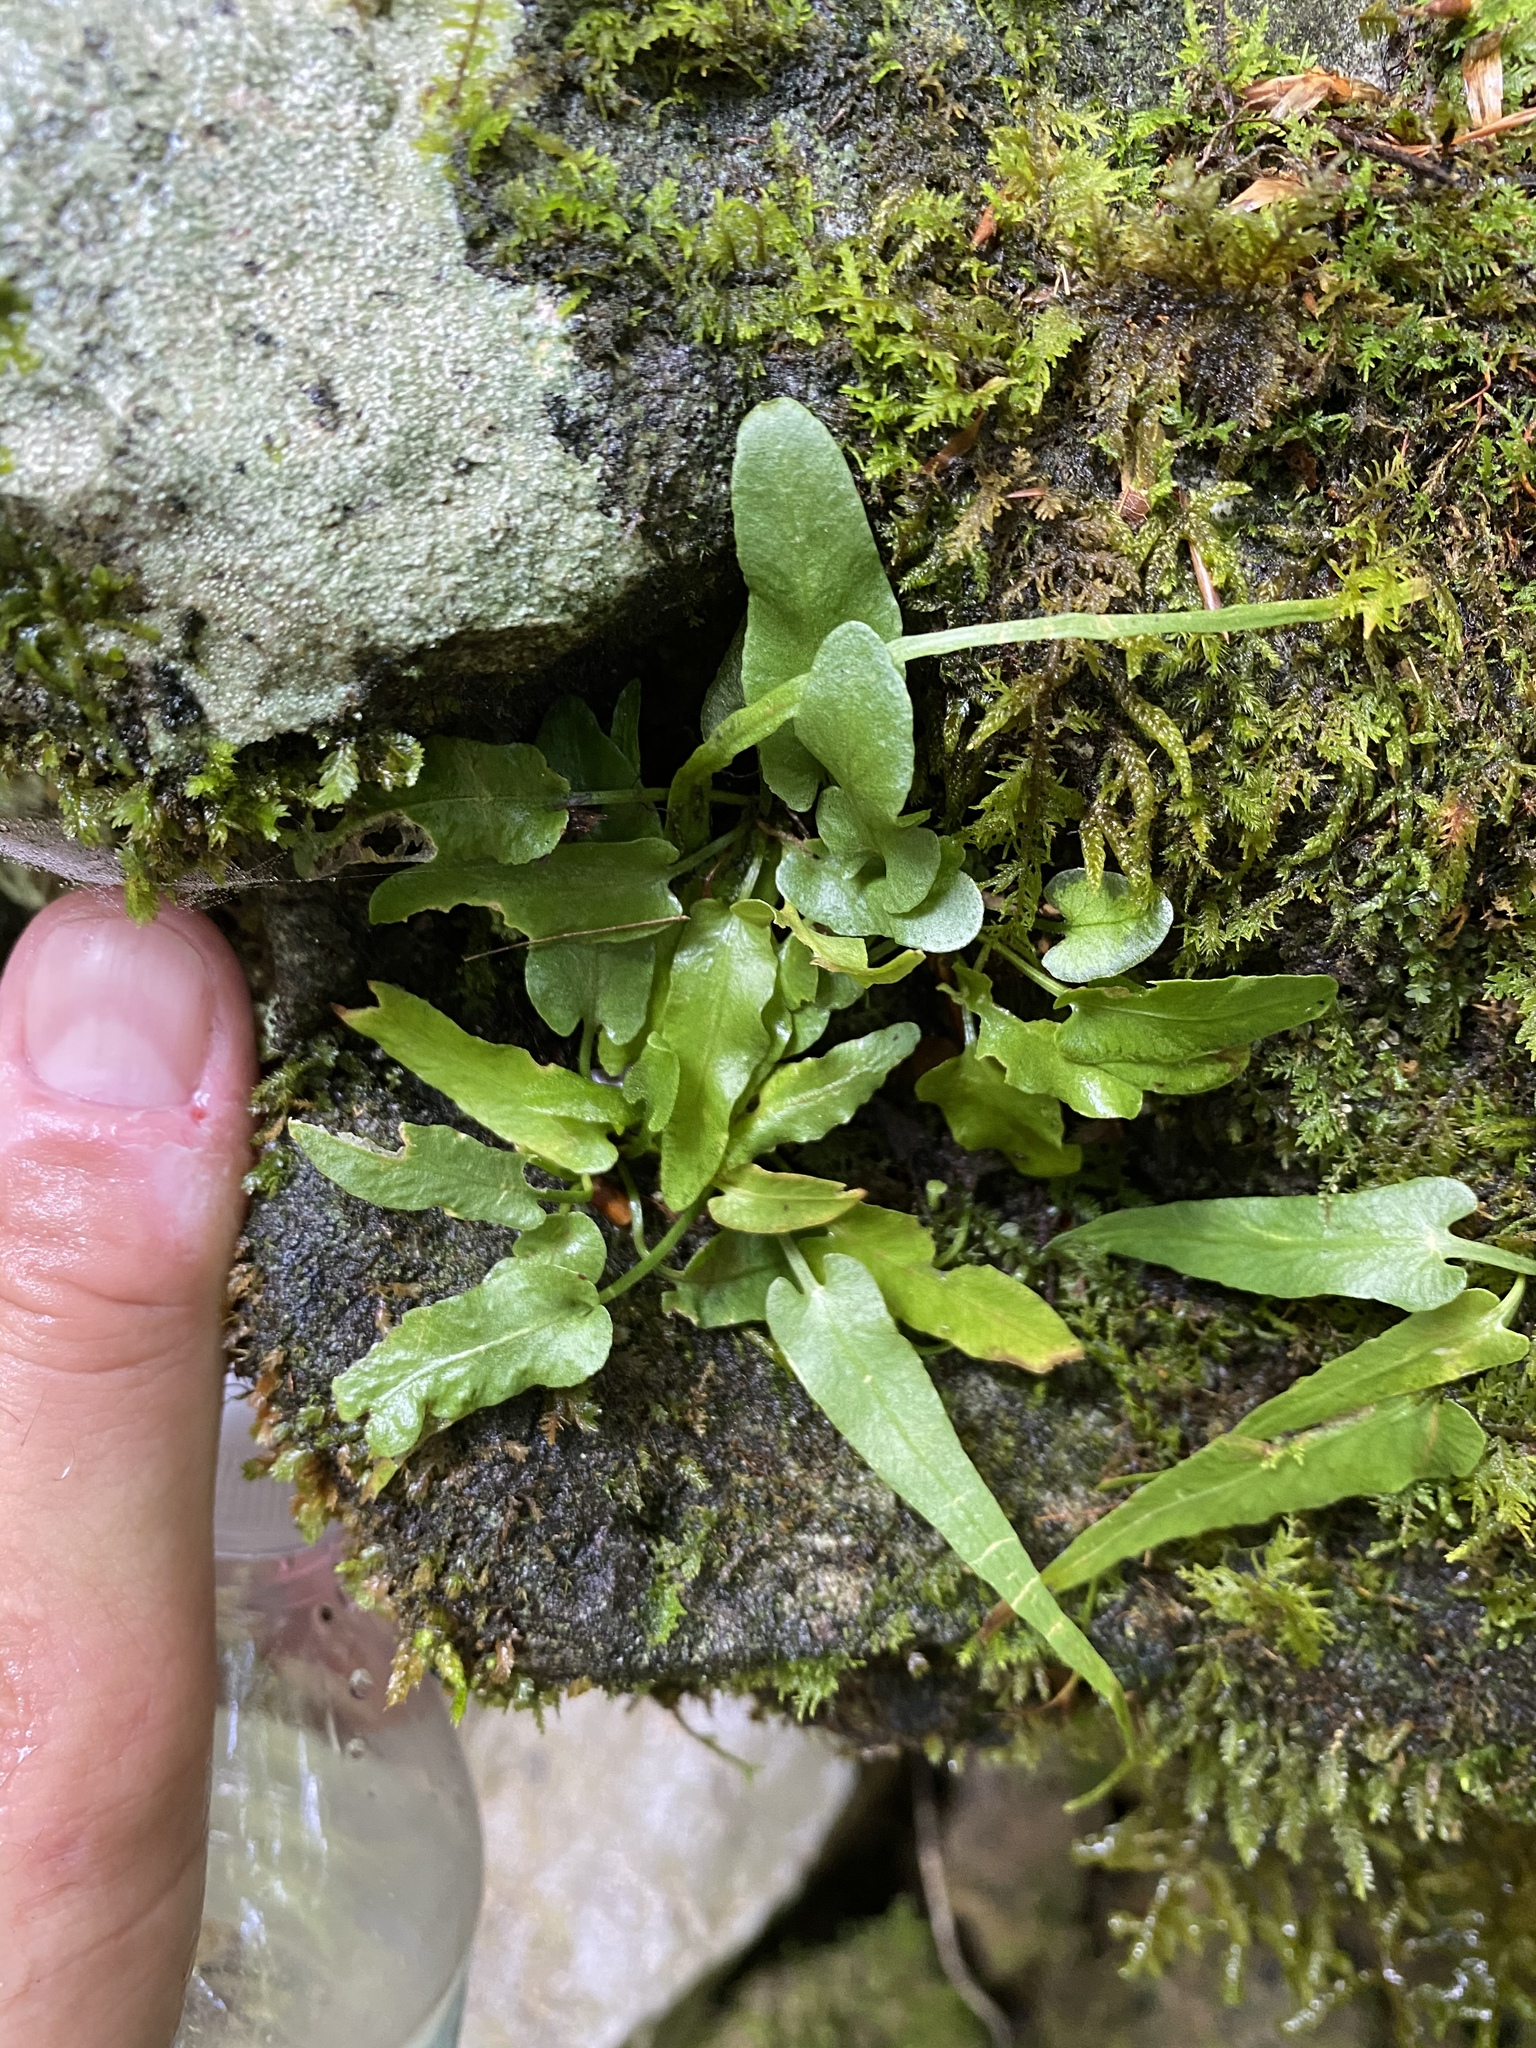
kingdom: Plantae
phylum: Tracheophyta
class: Polypodiopsida
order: Polypodiales
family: Aspleniaceae
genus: Asplenium
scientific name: Asplenium rhizophyllum
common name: Walking fern
